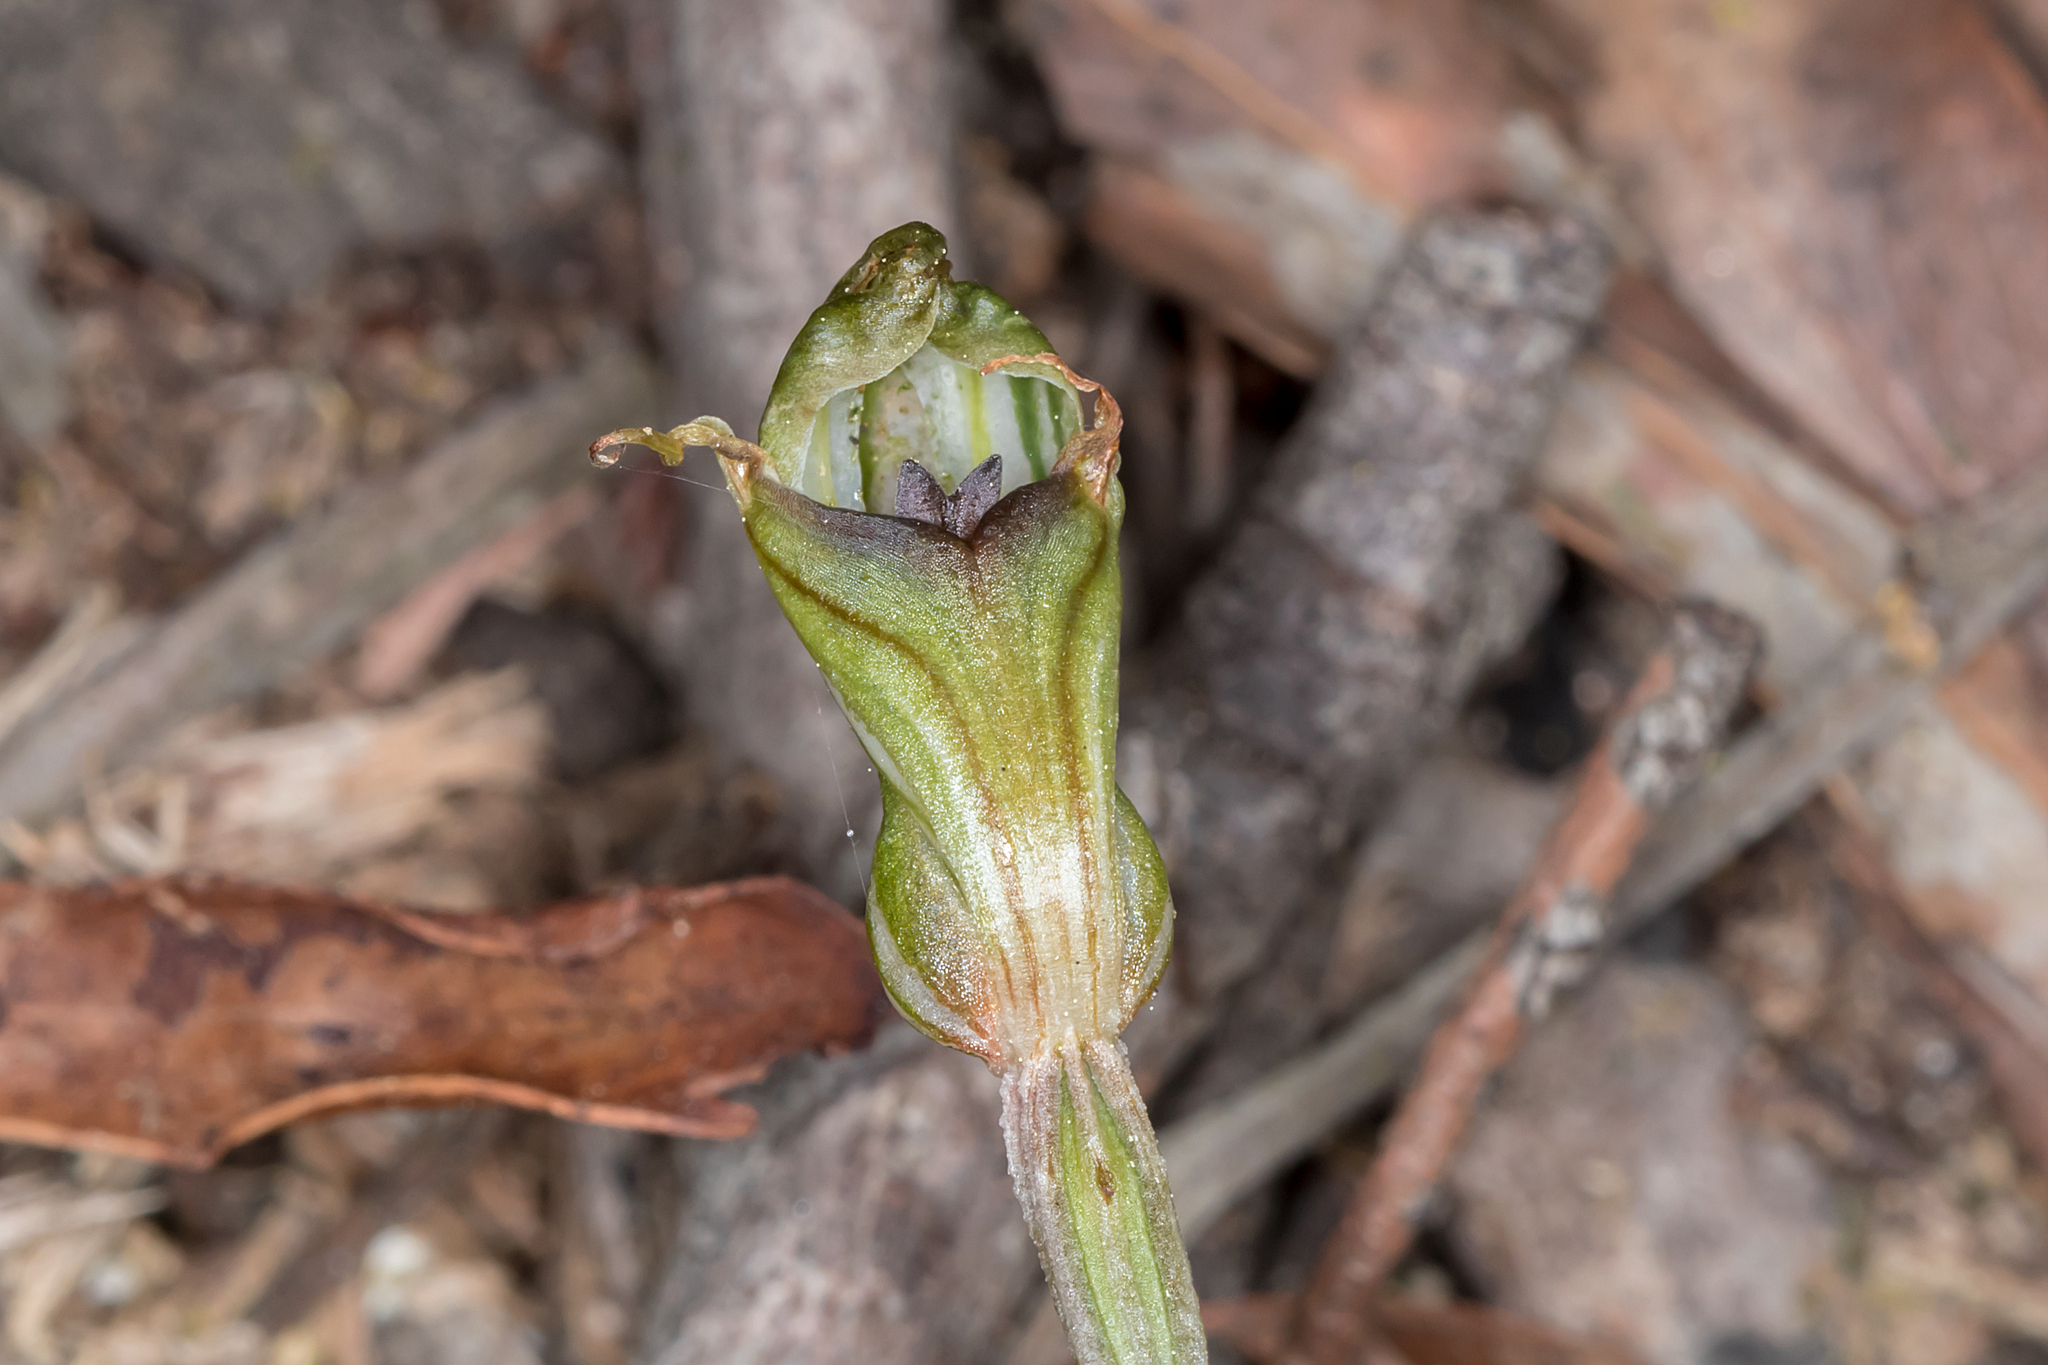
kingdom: Plantae
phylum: Tracheophyta
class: Liliopsida
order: Asparagales
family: Orchidaceae
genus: Pterostylis
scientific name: Pterostylis concinna
